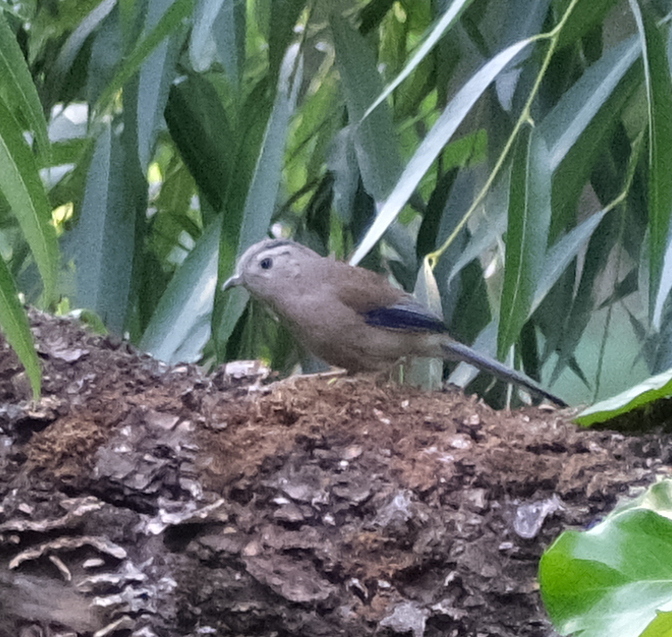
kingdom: Animalia
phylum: Chordata
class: Aves
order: Passeriformes
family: Leiothrichidae
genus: Minla
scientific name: Minla cyanouroptera
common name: Blue-winged minla
